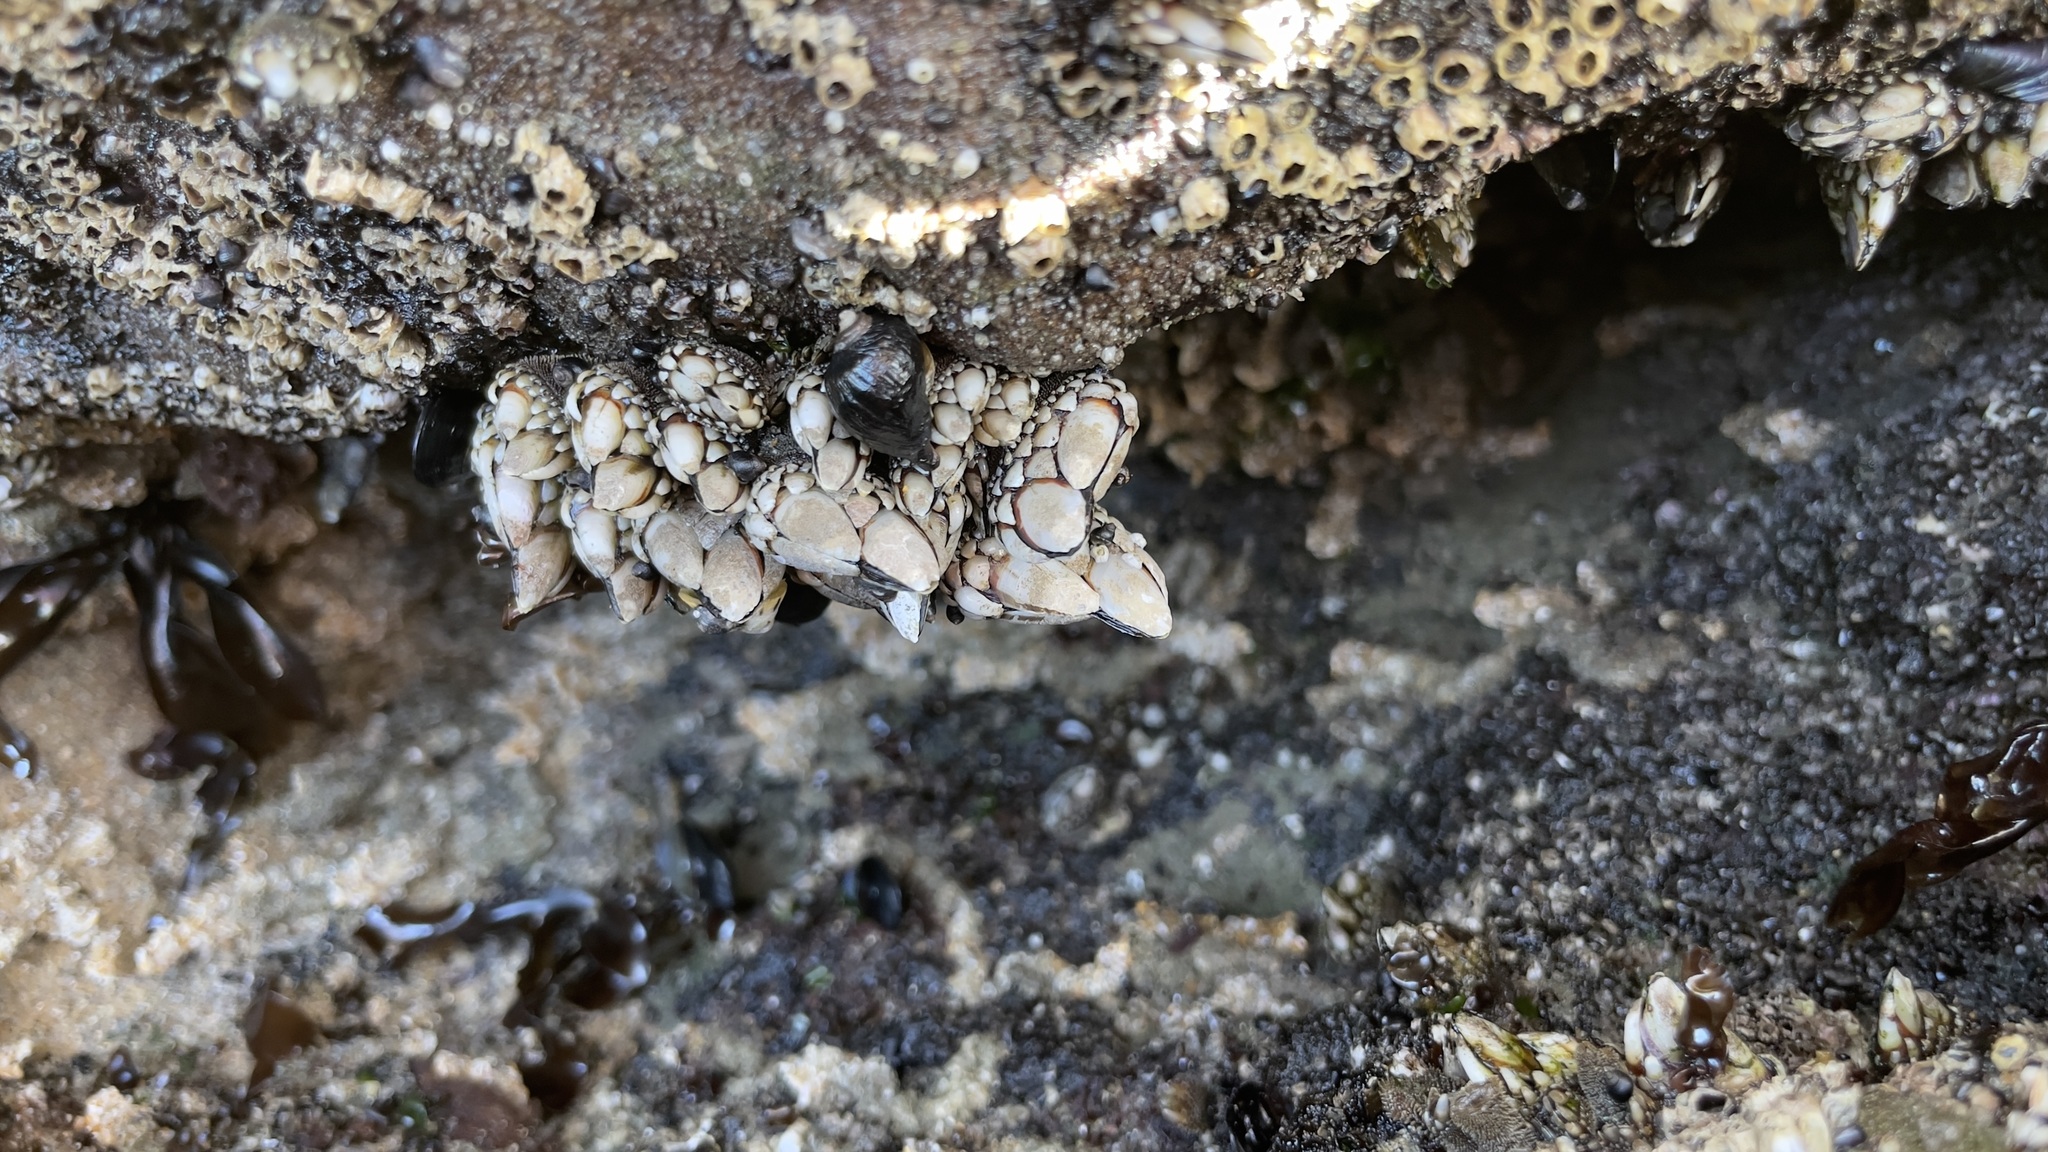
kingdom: Animalia
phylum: Arthropoda
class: Maxillopoda
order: Pedunculata
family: Pollicipedidae
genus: Pollicipes
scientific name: Pollicipes polymerus
